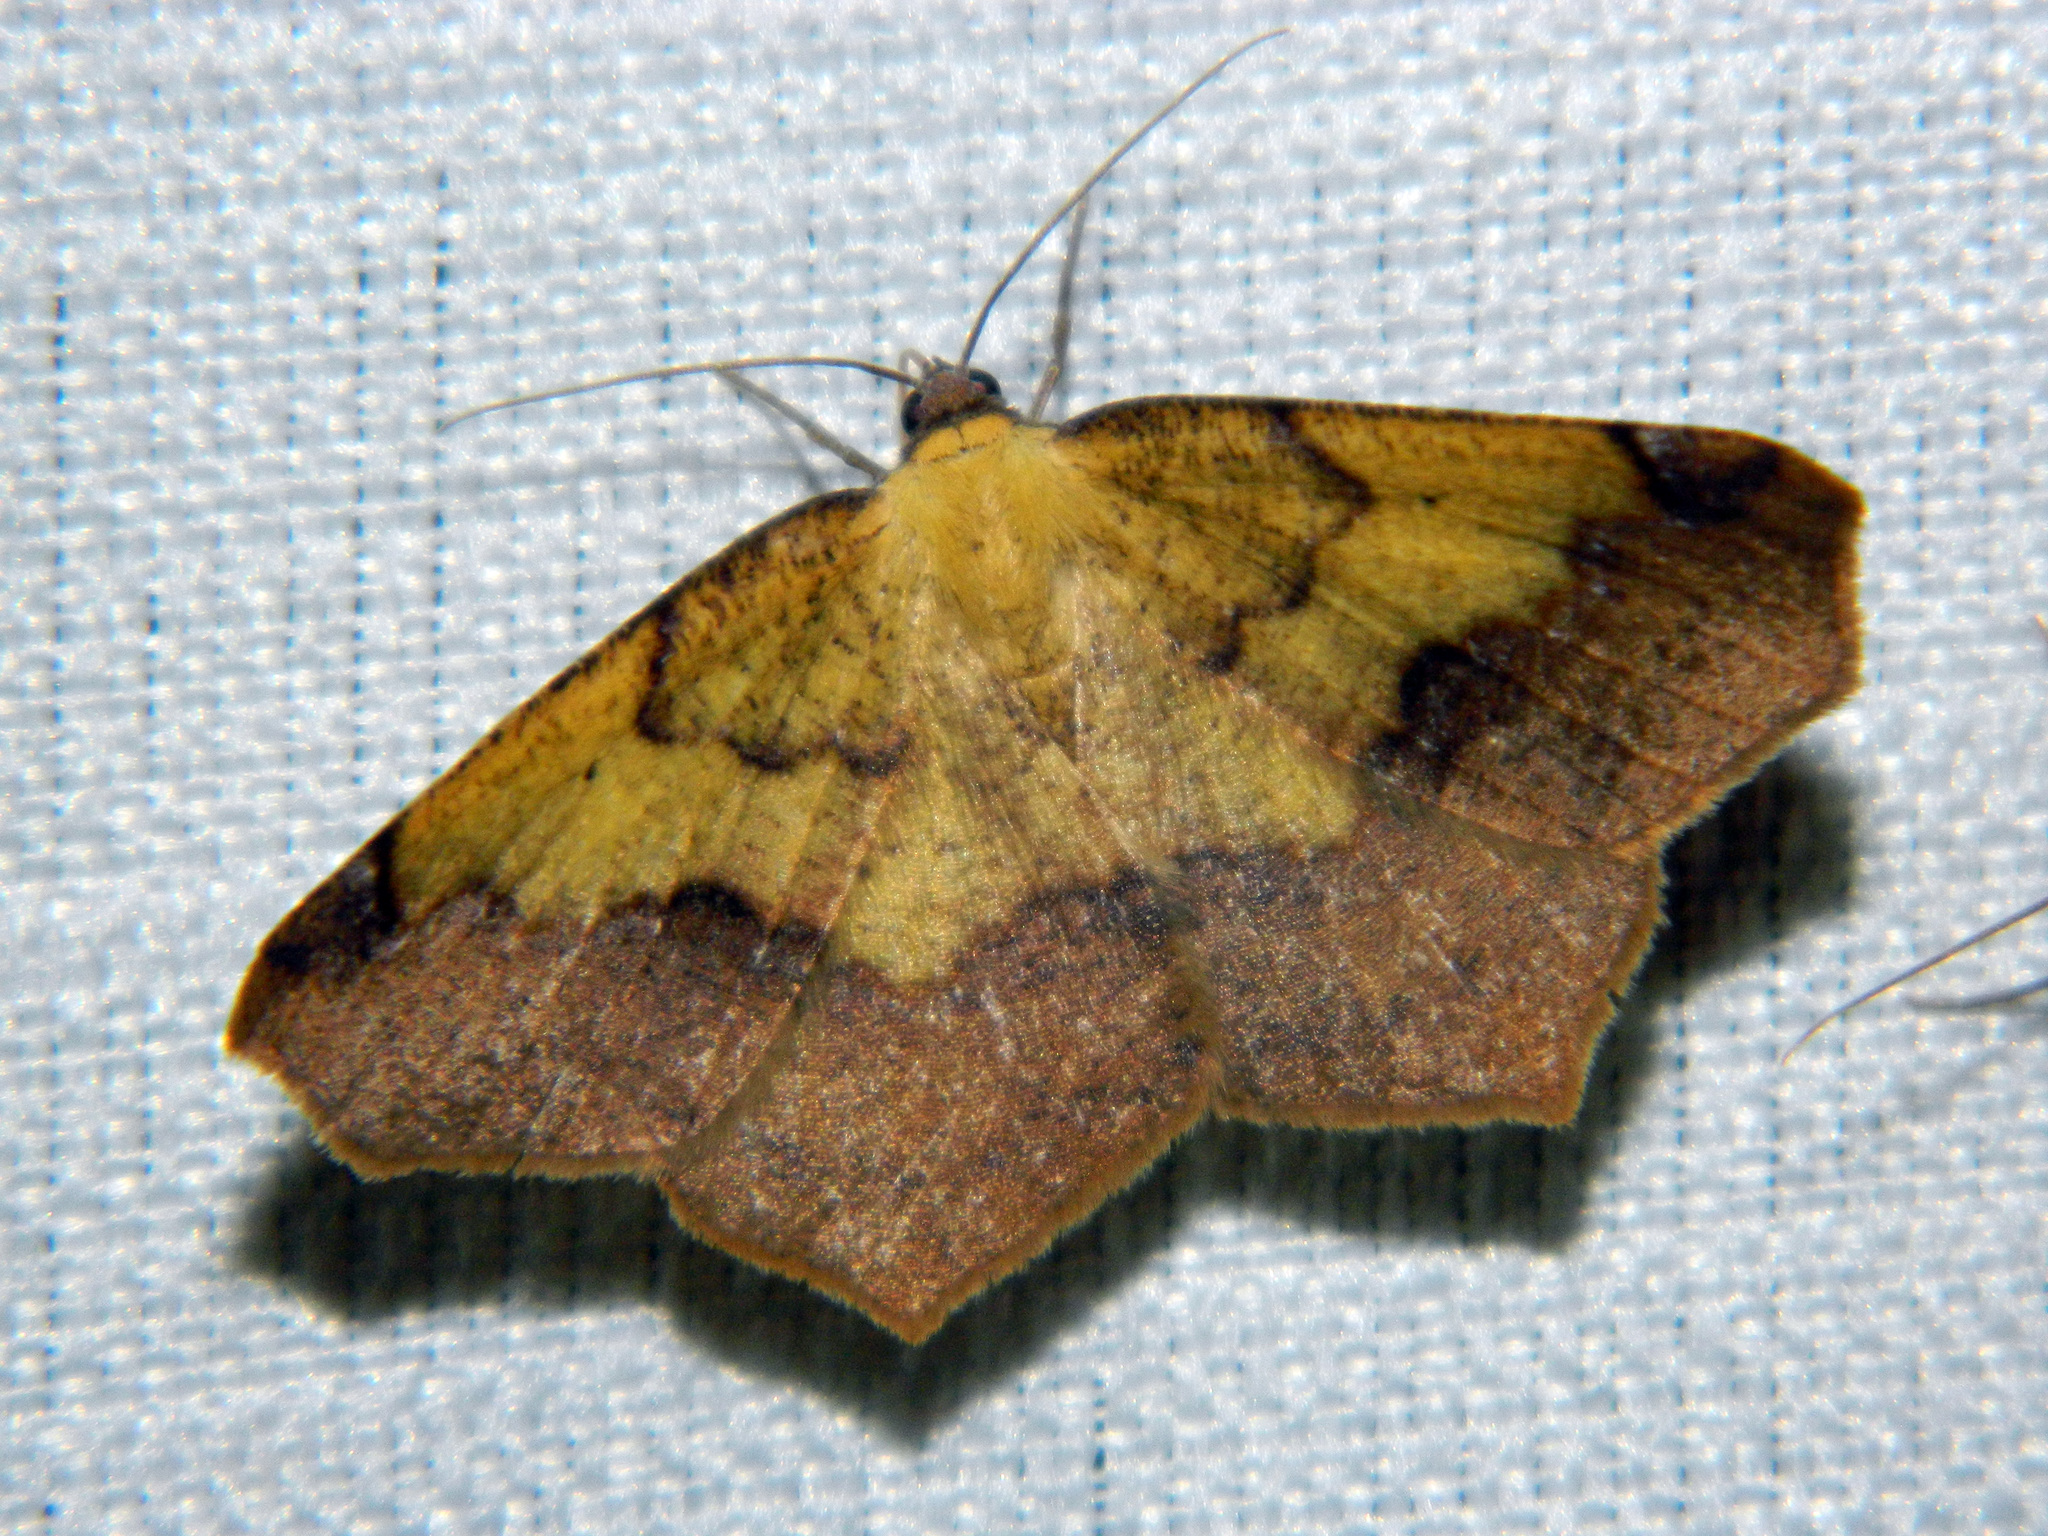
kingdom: Animalia
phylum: Arthropoda
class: Insecta
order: Lepidoptera
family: Geometridae
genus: Antepione
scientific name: Antepione thisoaria
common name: Variable antipione
